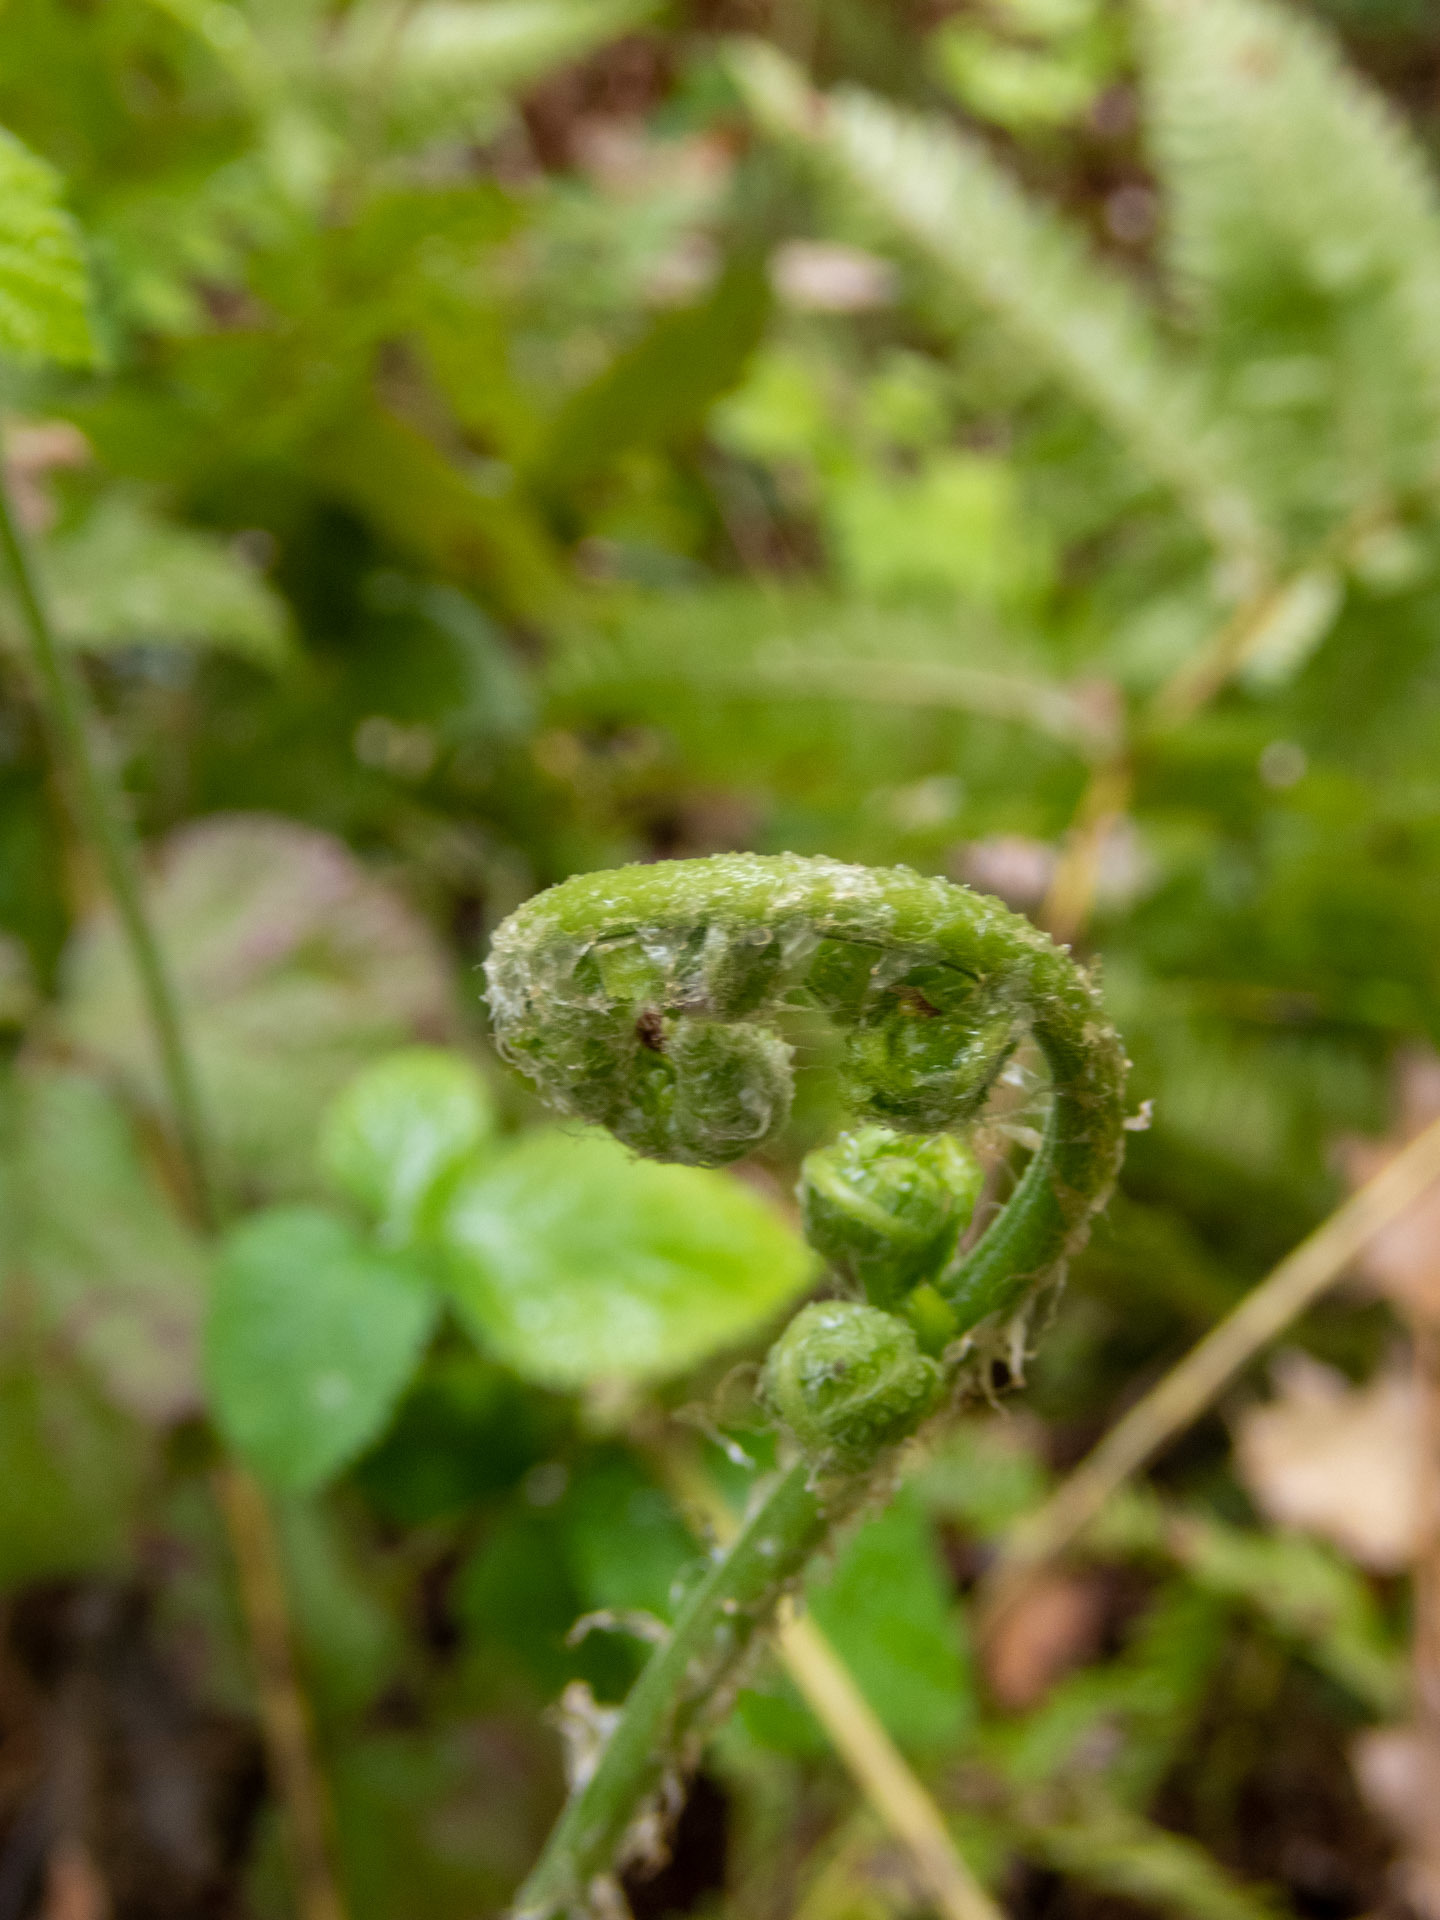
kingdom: Plantae
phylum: Tracheophyta
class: Polypodiopsida
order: Polypodiales
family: Dryopteridaceae
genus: Dryopteris
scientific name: Dryopteris arguta
